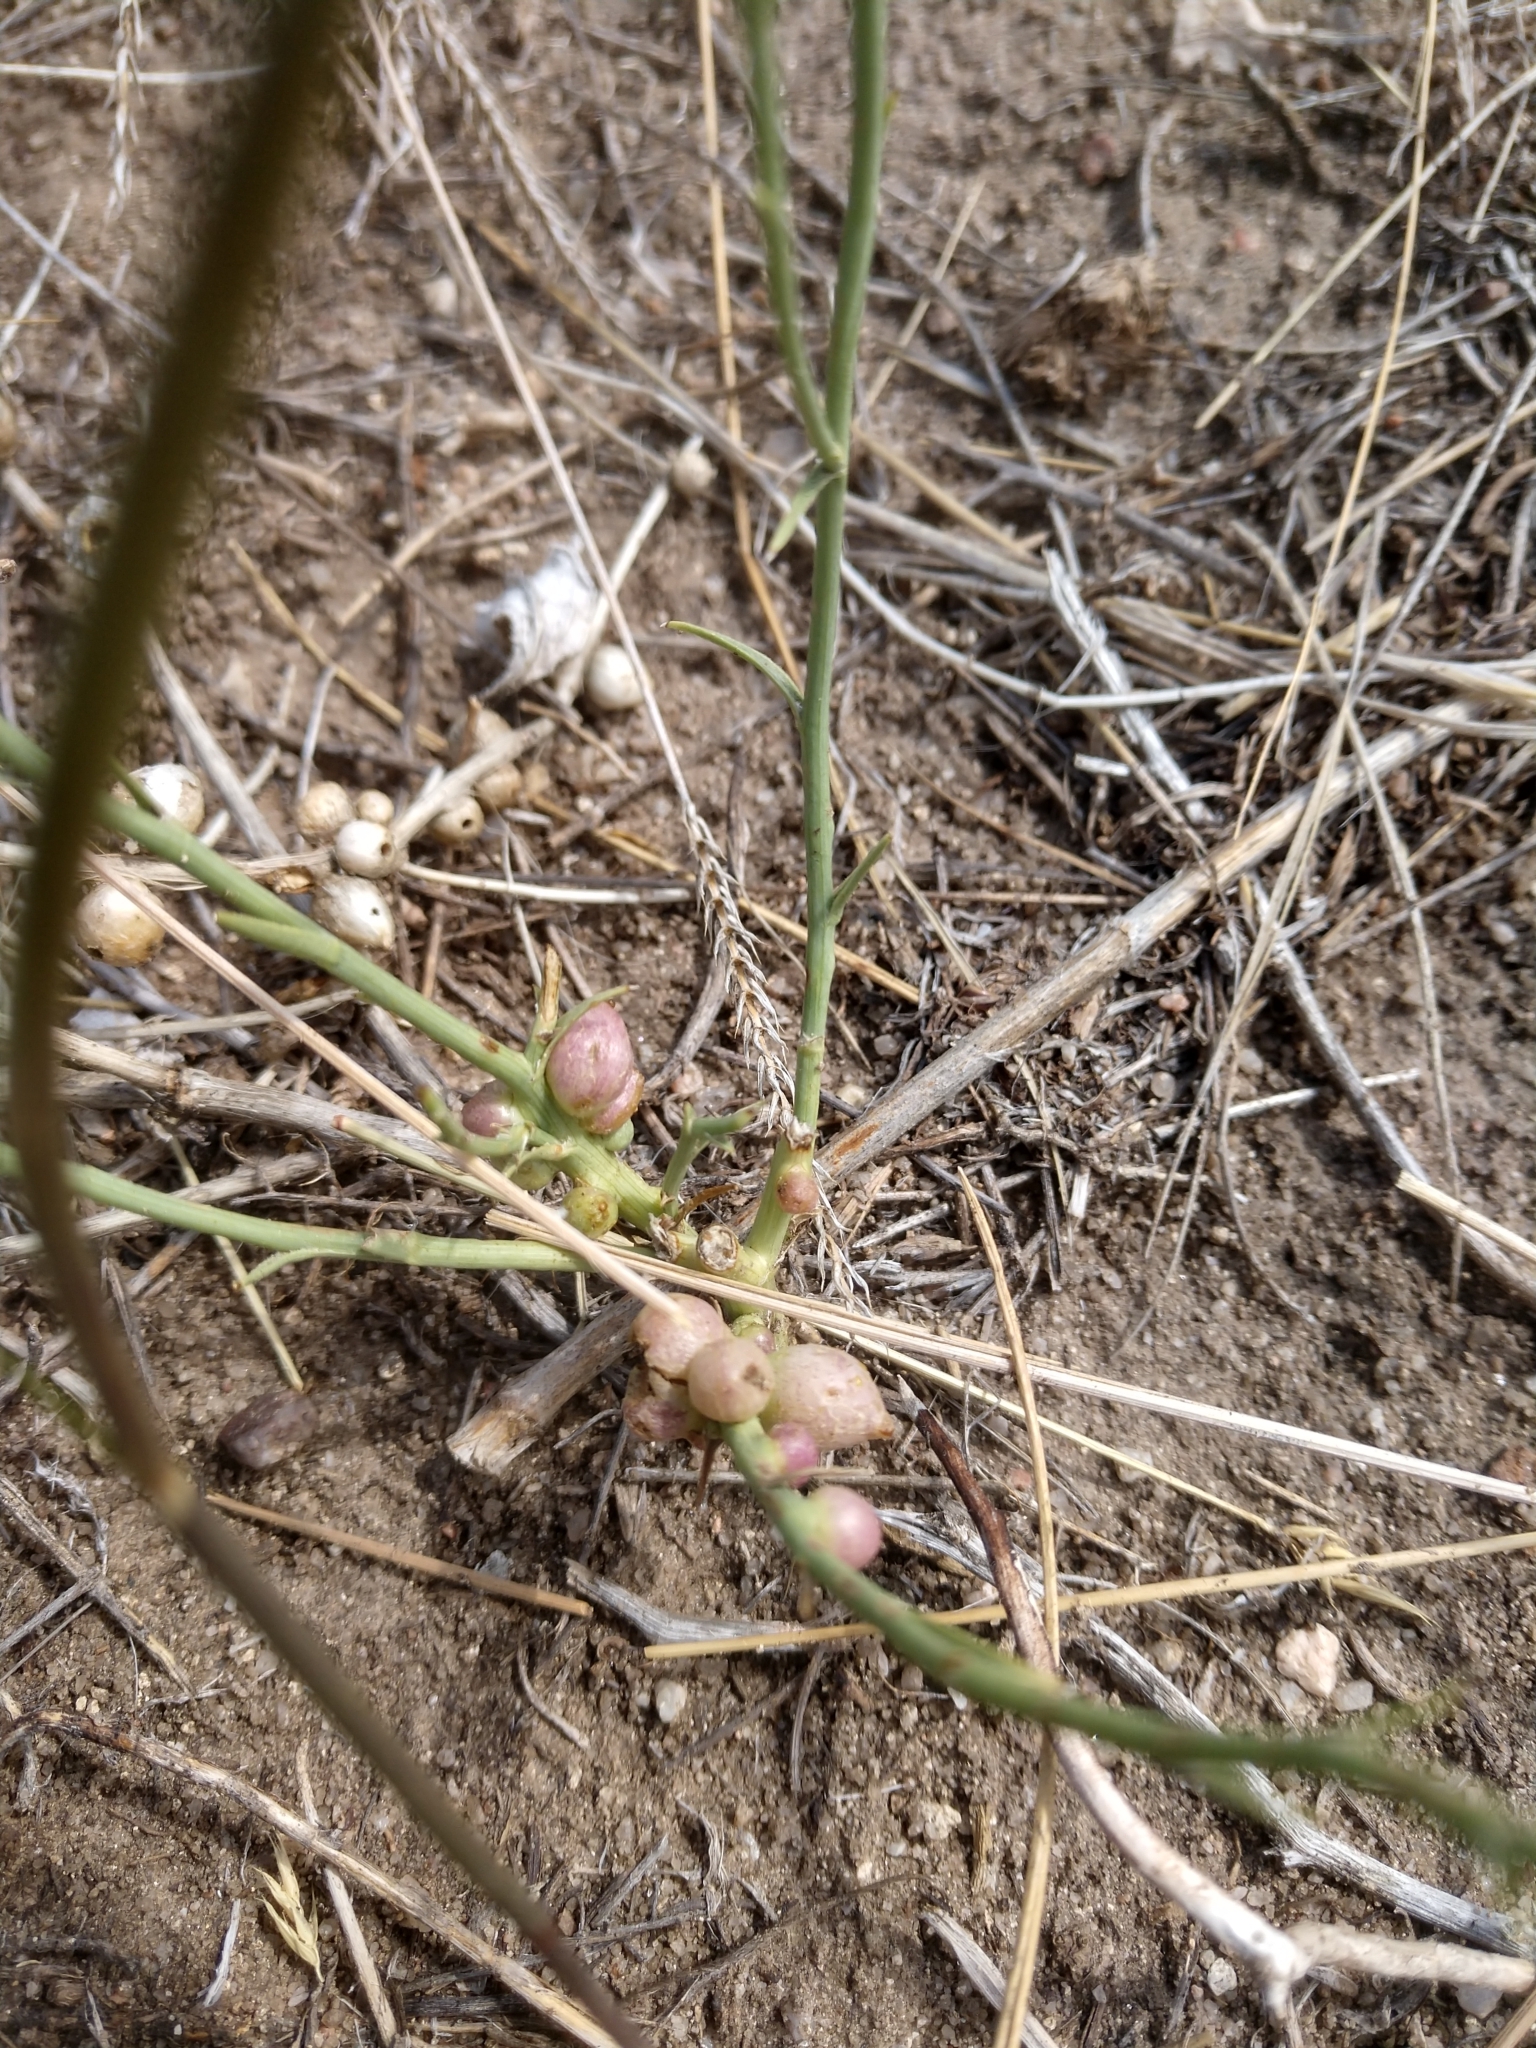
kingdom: Plantae
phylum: Tracheophyta
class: Magnoliopsida
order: Asterales
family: Asteraceae
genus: Lygodesmia
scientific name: Lygodesmia juncea
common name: Common skeletonweed
